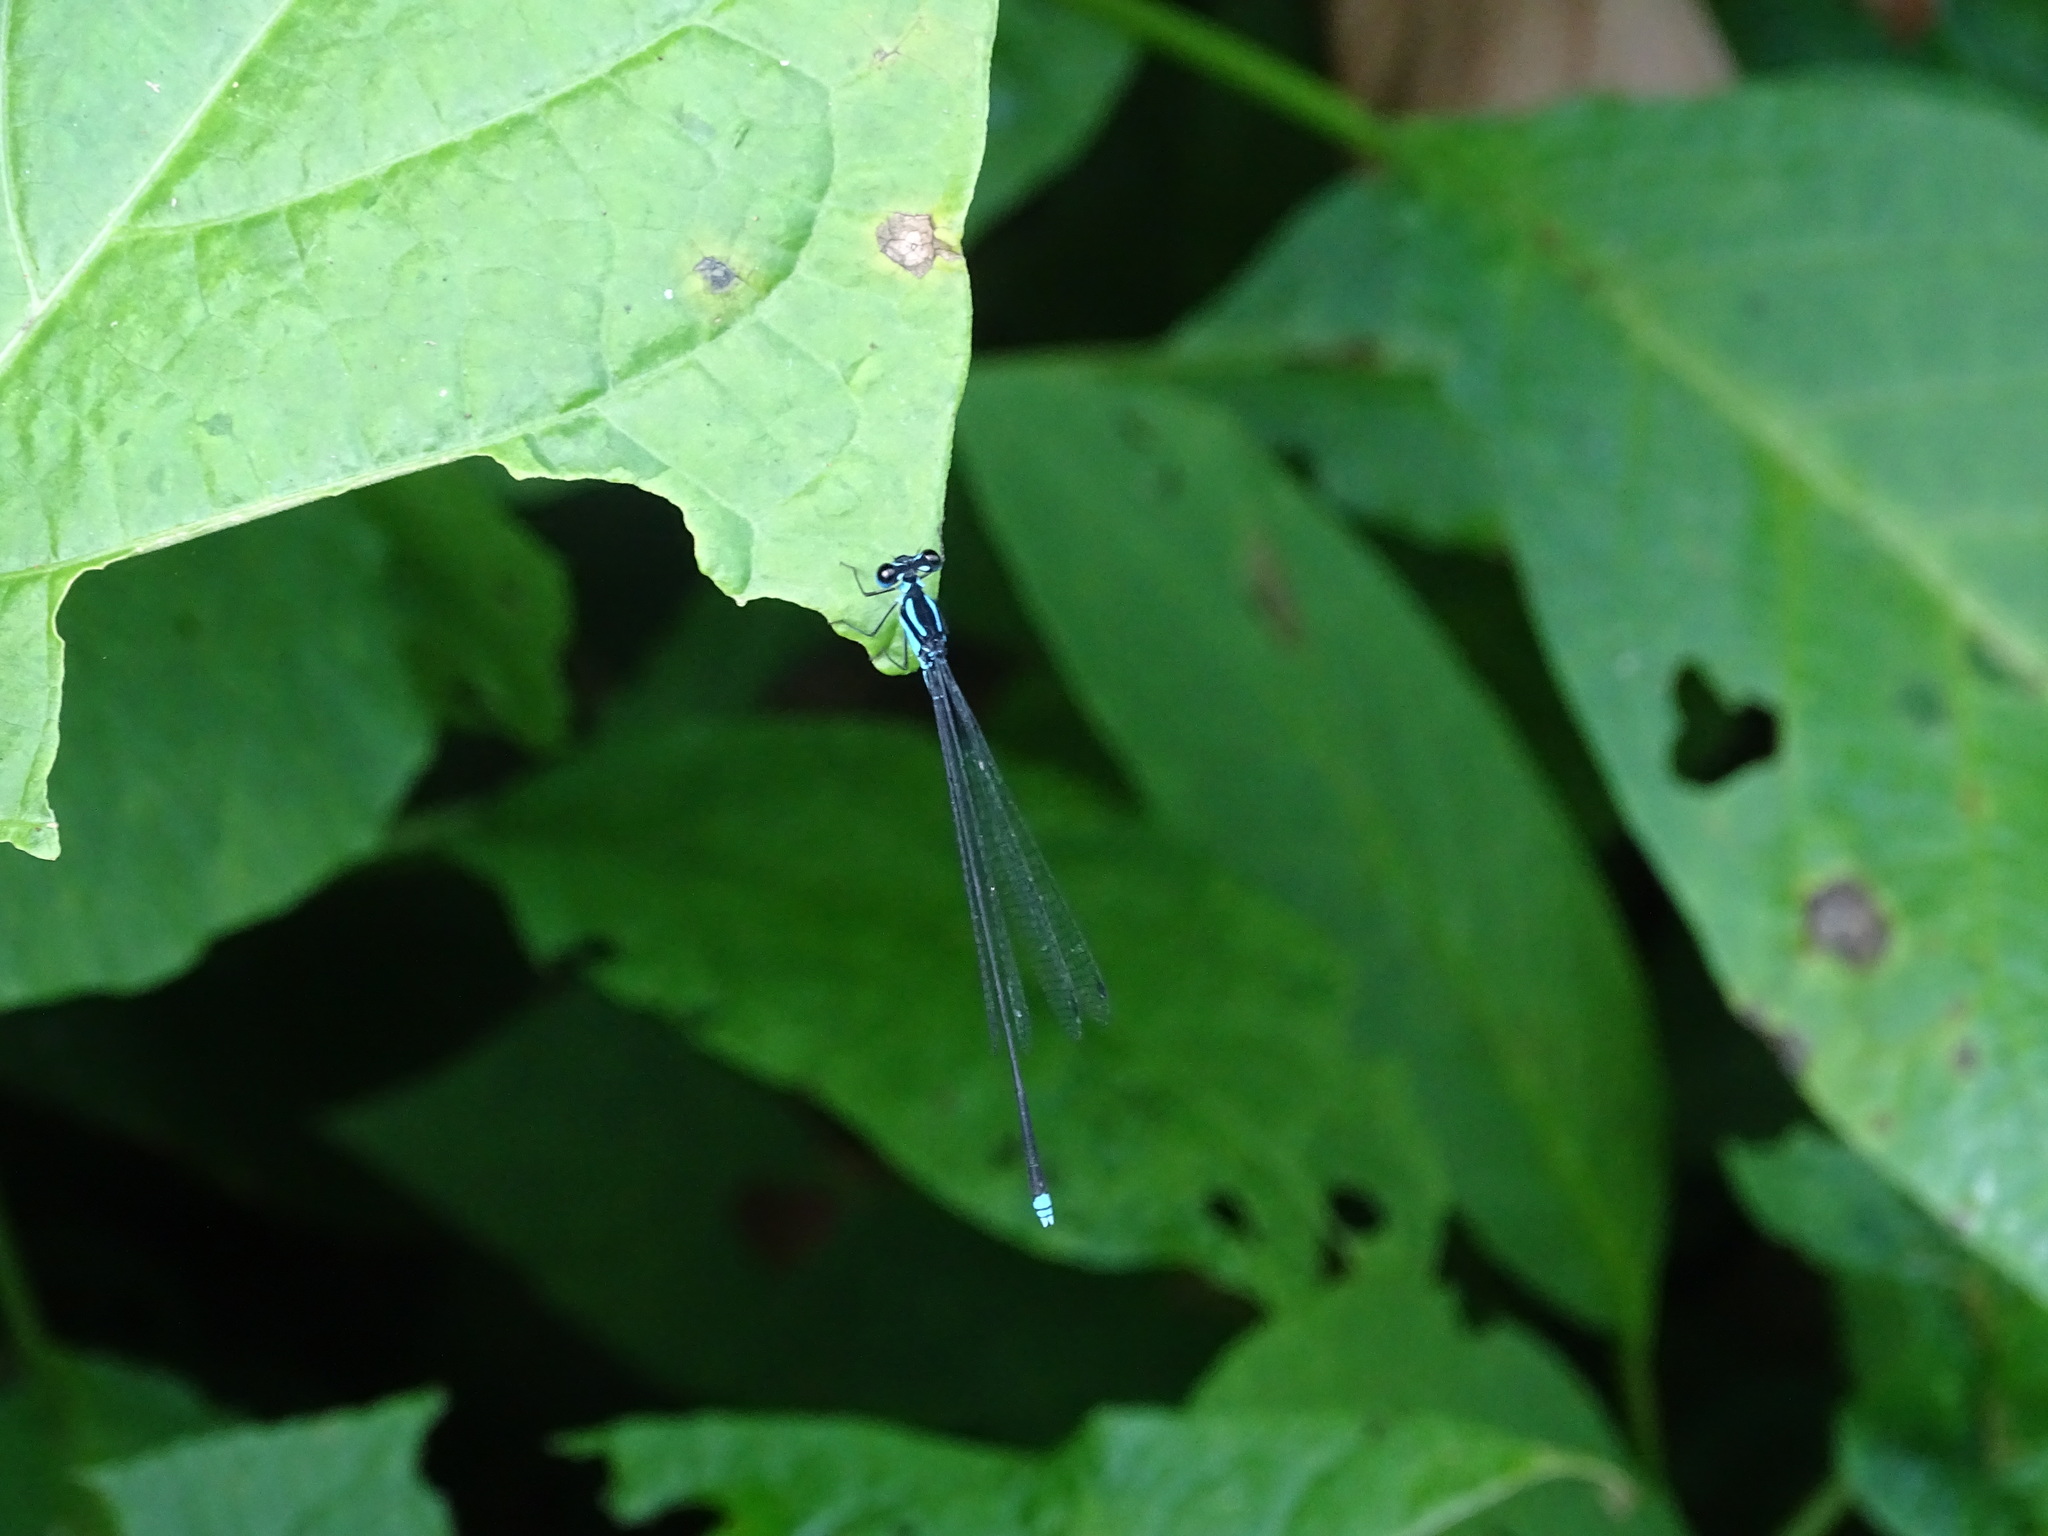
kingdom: Animalia
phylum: Arthropoda
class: Insecta
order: Odonata
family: Platycnemididae
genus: Coeliccia
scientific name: Coeliccia membranipes
